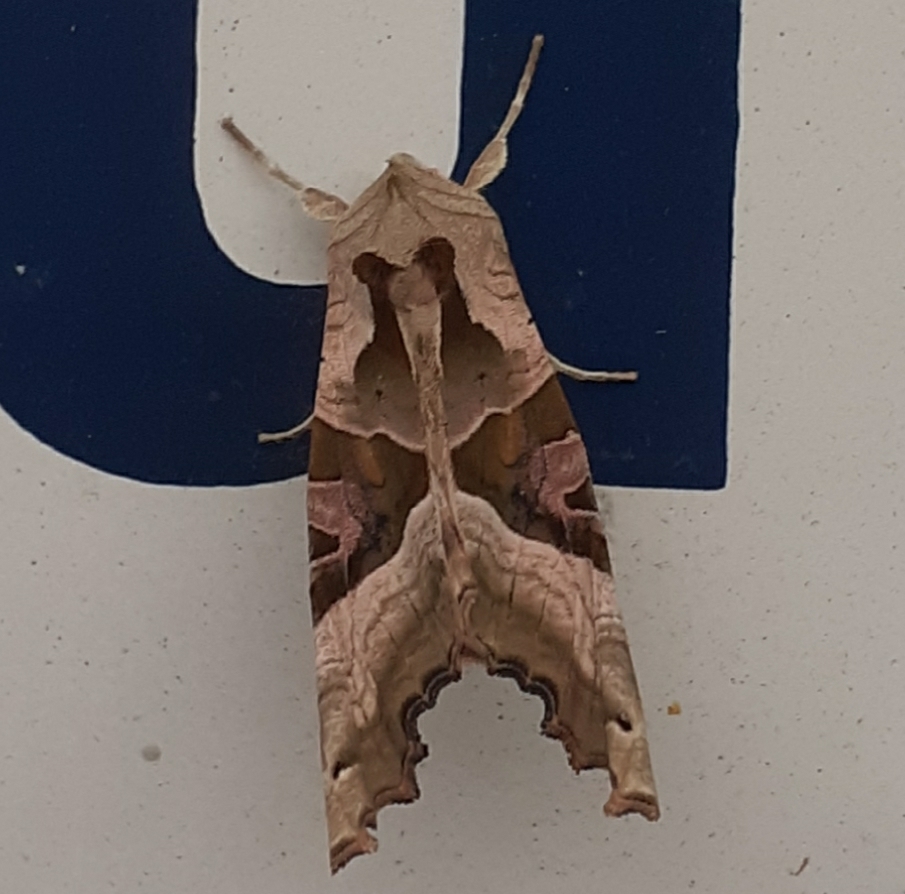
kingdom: Animalia
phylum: Arthropoda
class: Insecta
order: Lepidoptera
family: Noctuidae
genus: Phlogophora
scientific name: Phlogophora meticulosa
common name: Angle shades
